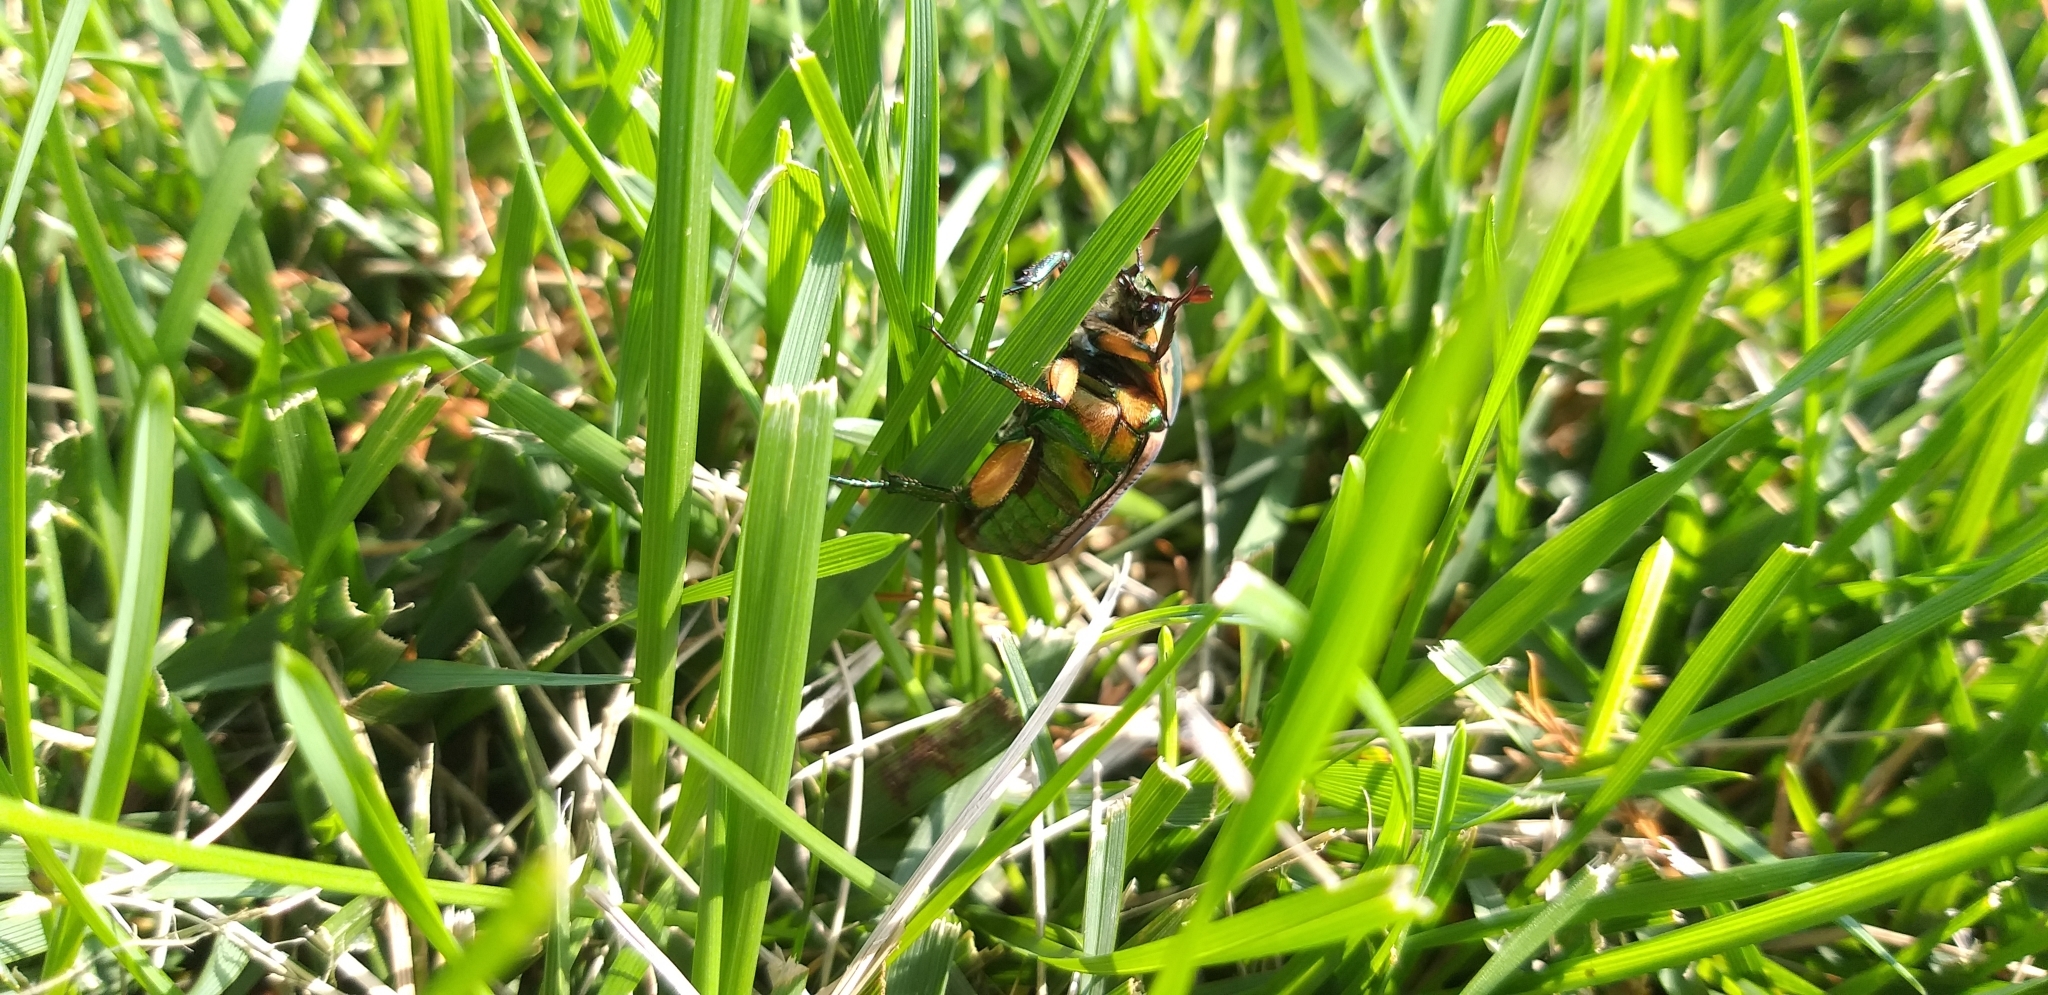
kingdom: Animalia
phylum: Arthropoda
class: Insecta
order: Coleoptera
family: Scarabaeidae
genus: Cotinis
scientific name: Cotinis nitida
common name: Common green june beetle
